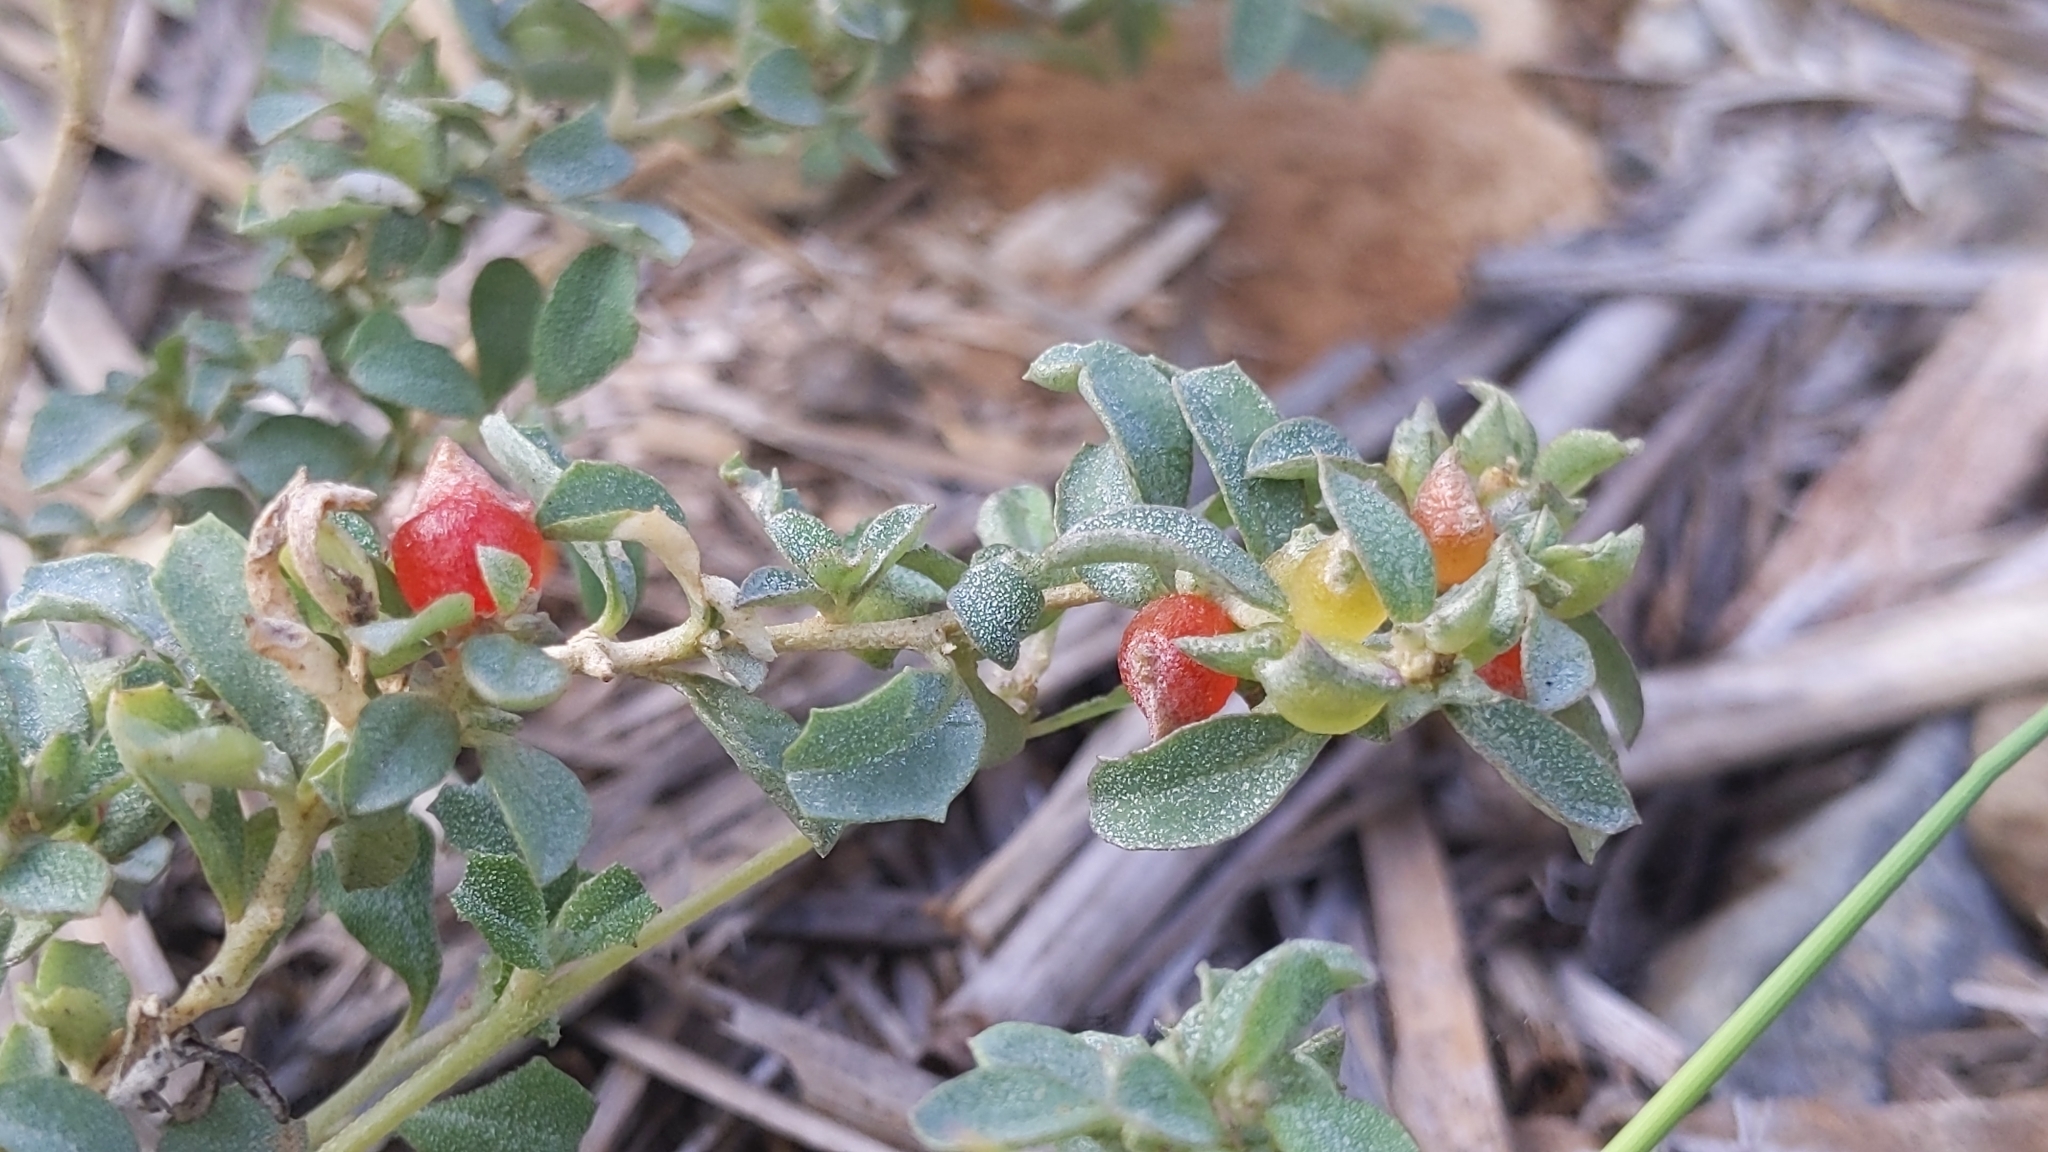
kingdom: Plantae
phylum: Tracheophyta
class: Magnoliopsida
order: Caryophyllales
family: Amaranthaceae
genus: Atriplex
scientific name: Atriplex semibaccata
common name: Australian saltbush
